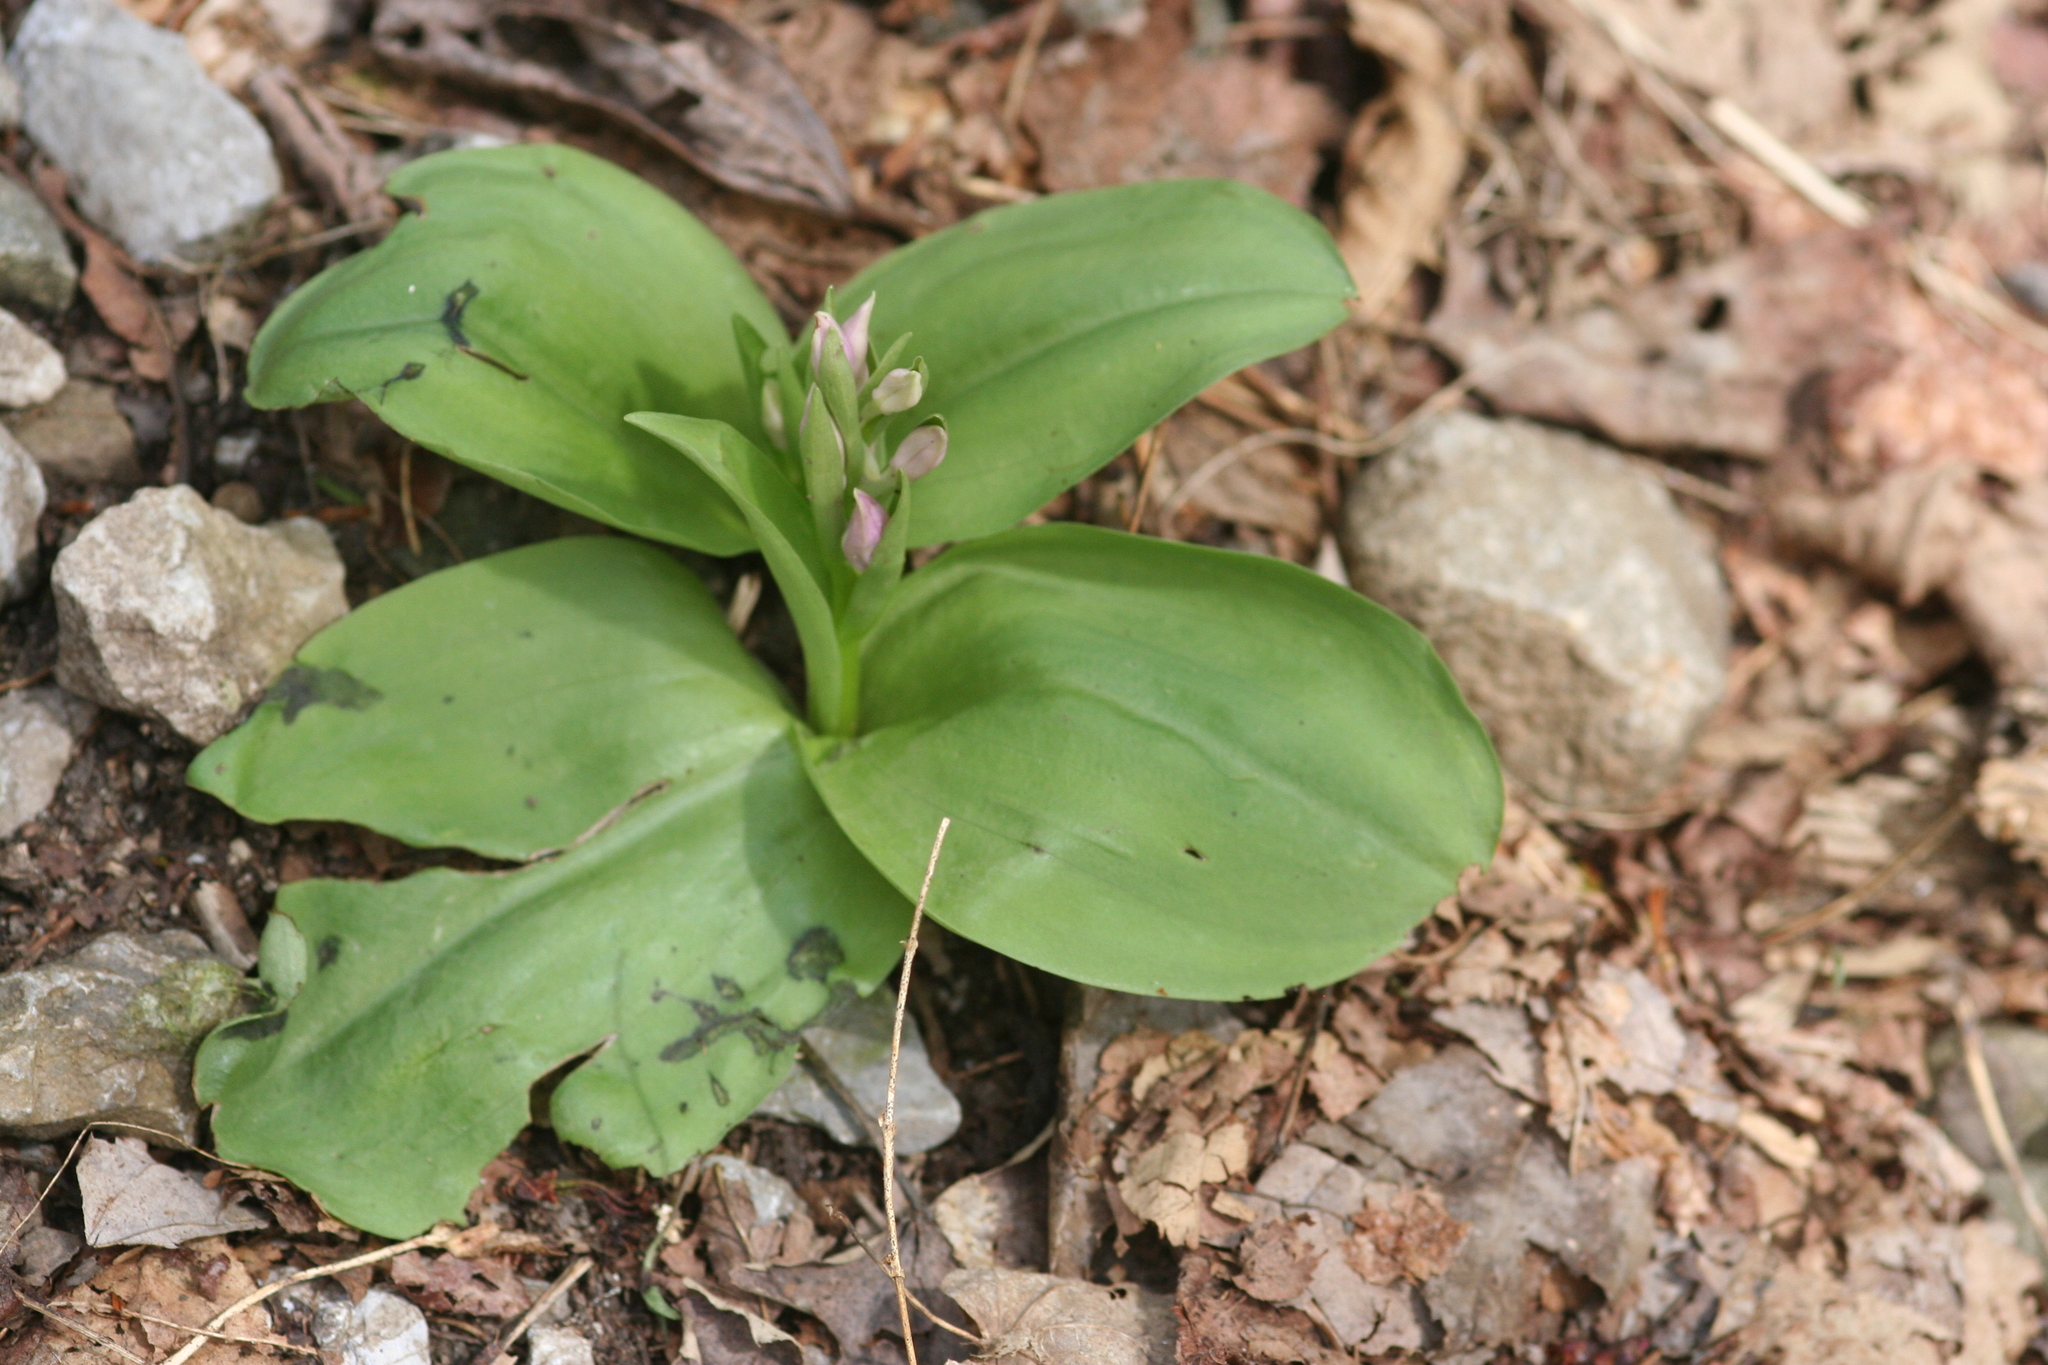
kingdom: Plantae
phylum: Tracheophyta
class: Liliopsida
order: Asparagales
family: Orchidaceae
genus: Galearis
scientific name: Galearis spectabilis
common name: Purple-hooded orchis
